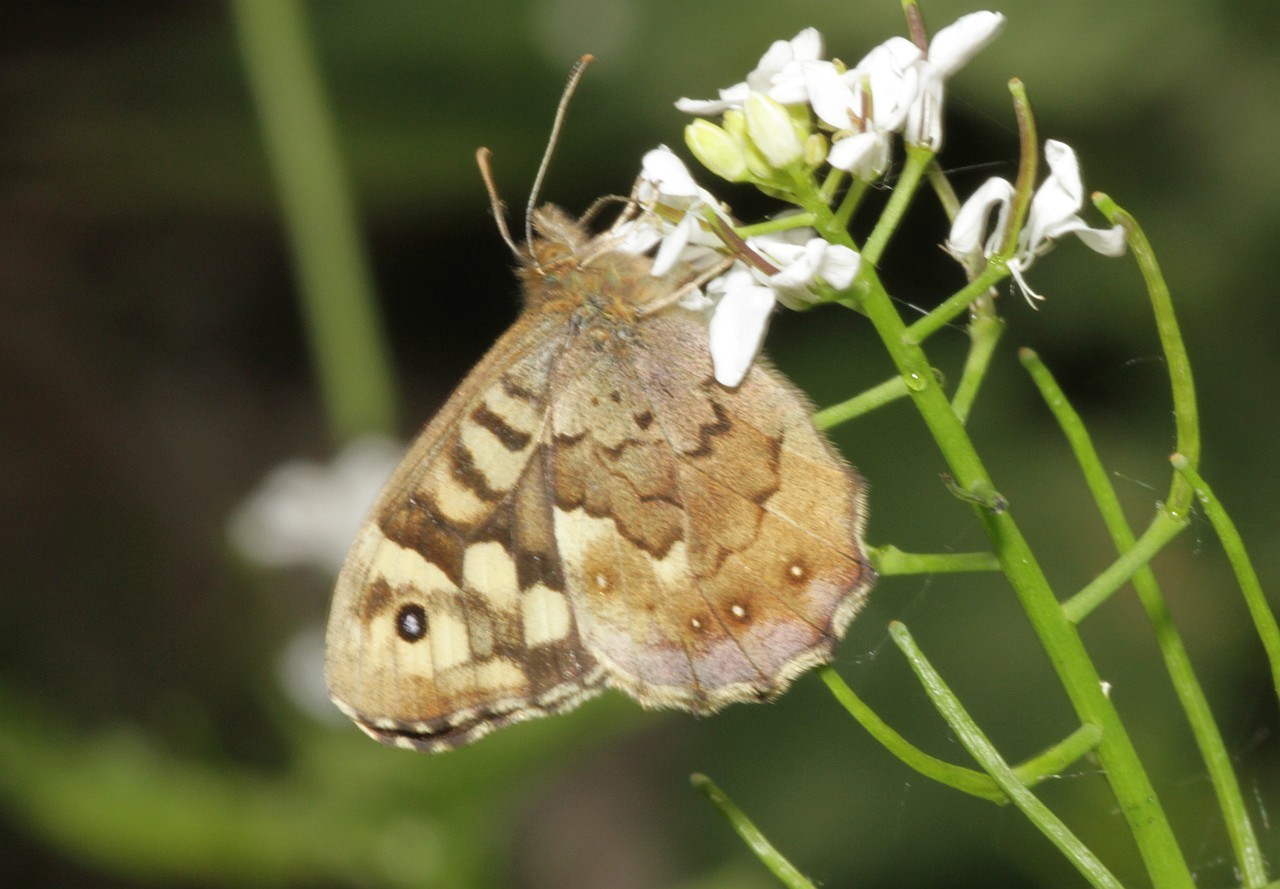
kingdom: Animalia
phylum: Arthropoda
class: Insecta
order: Lepidoptera
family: Nymphalidae
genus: Pararge
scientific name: Pararge aegeria
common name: Speckled wood
